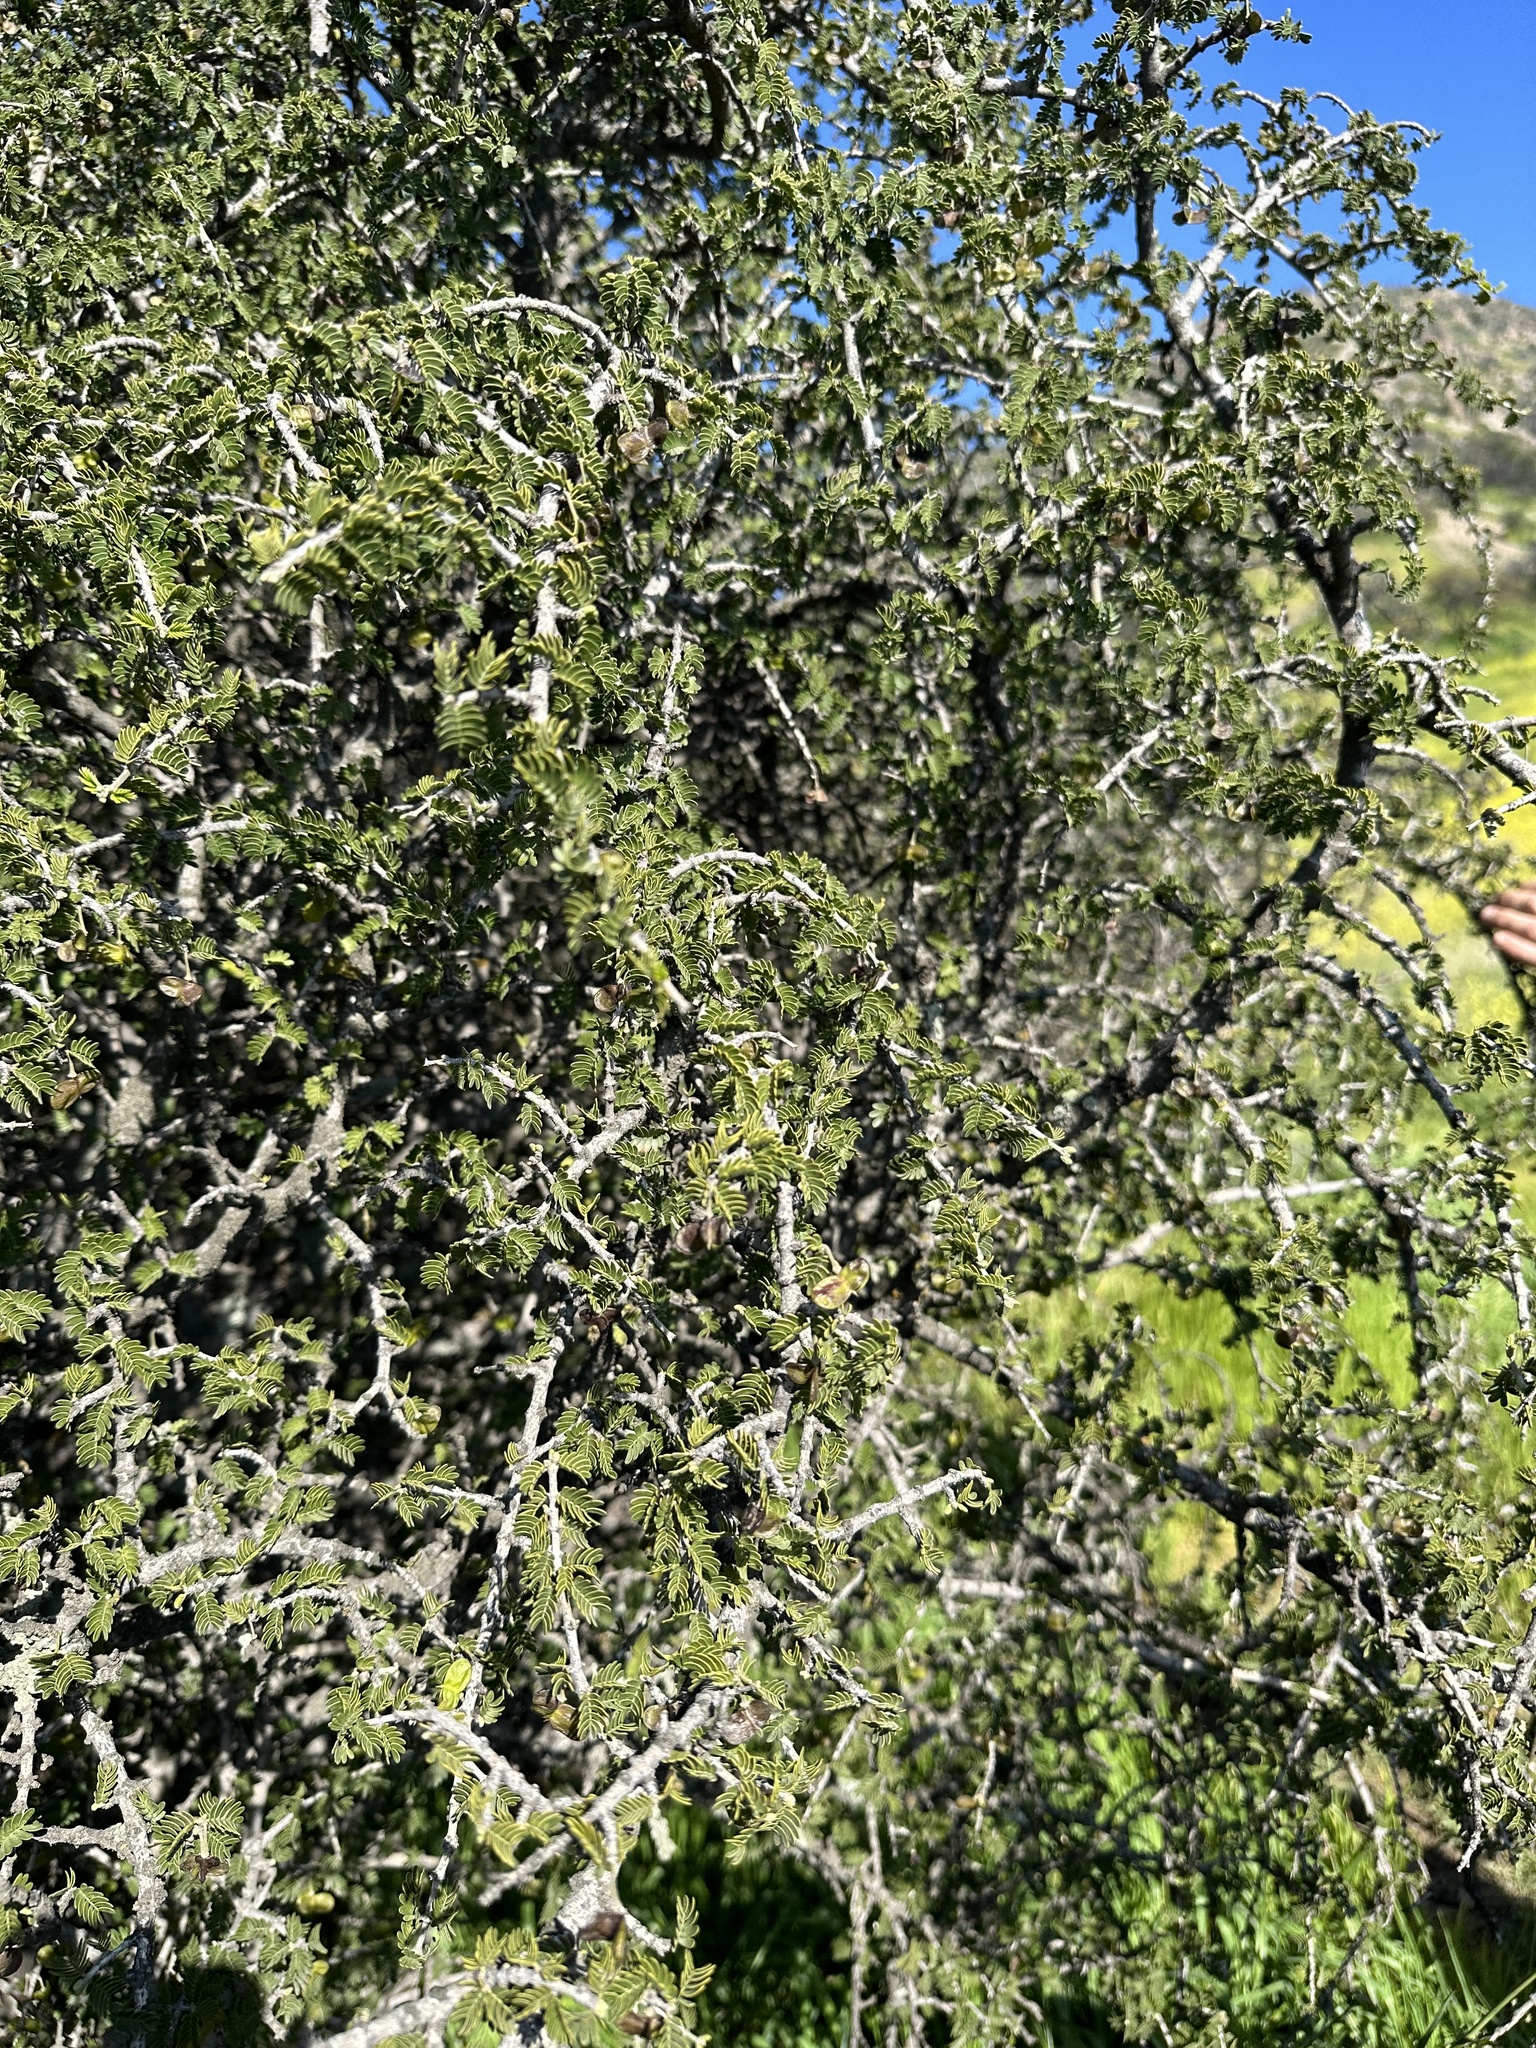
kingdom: Plantae
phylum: Tracheophyta
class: Magnoliopsida
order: Zygophyllales
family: Zygophyllaceae
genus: Porlieria
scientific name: Porlieria chilensis
